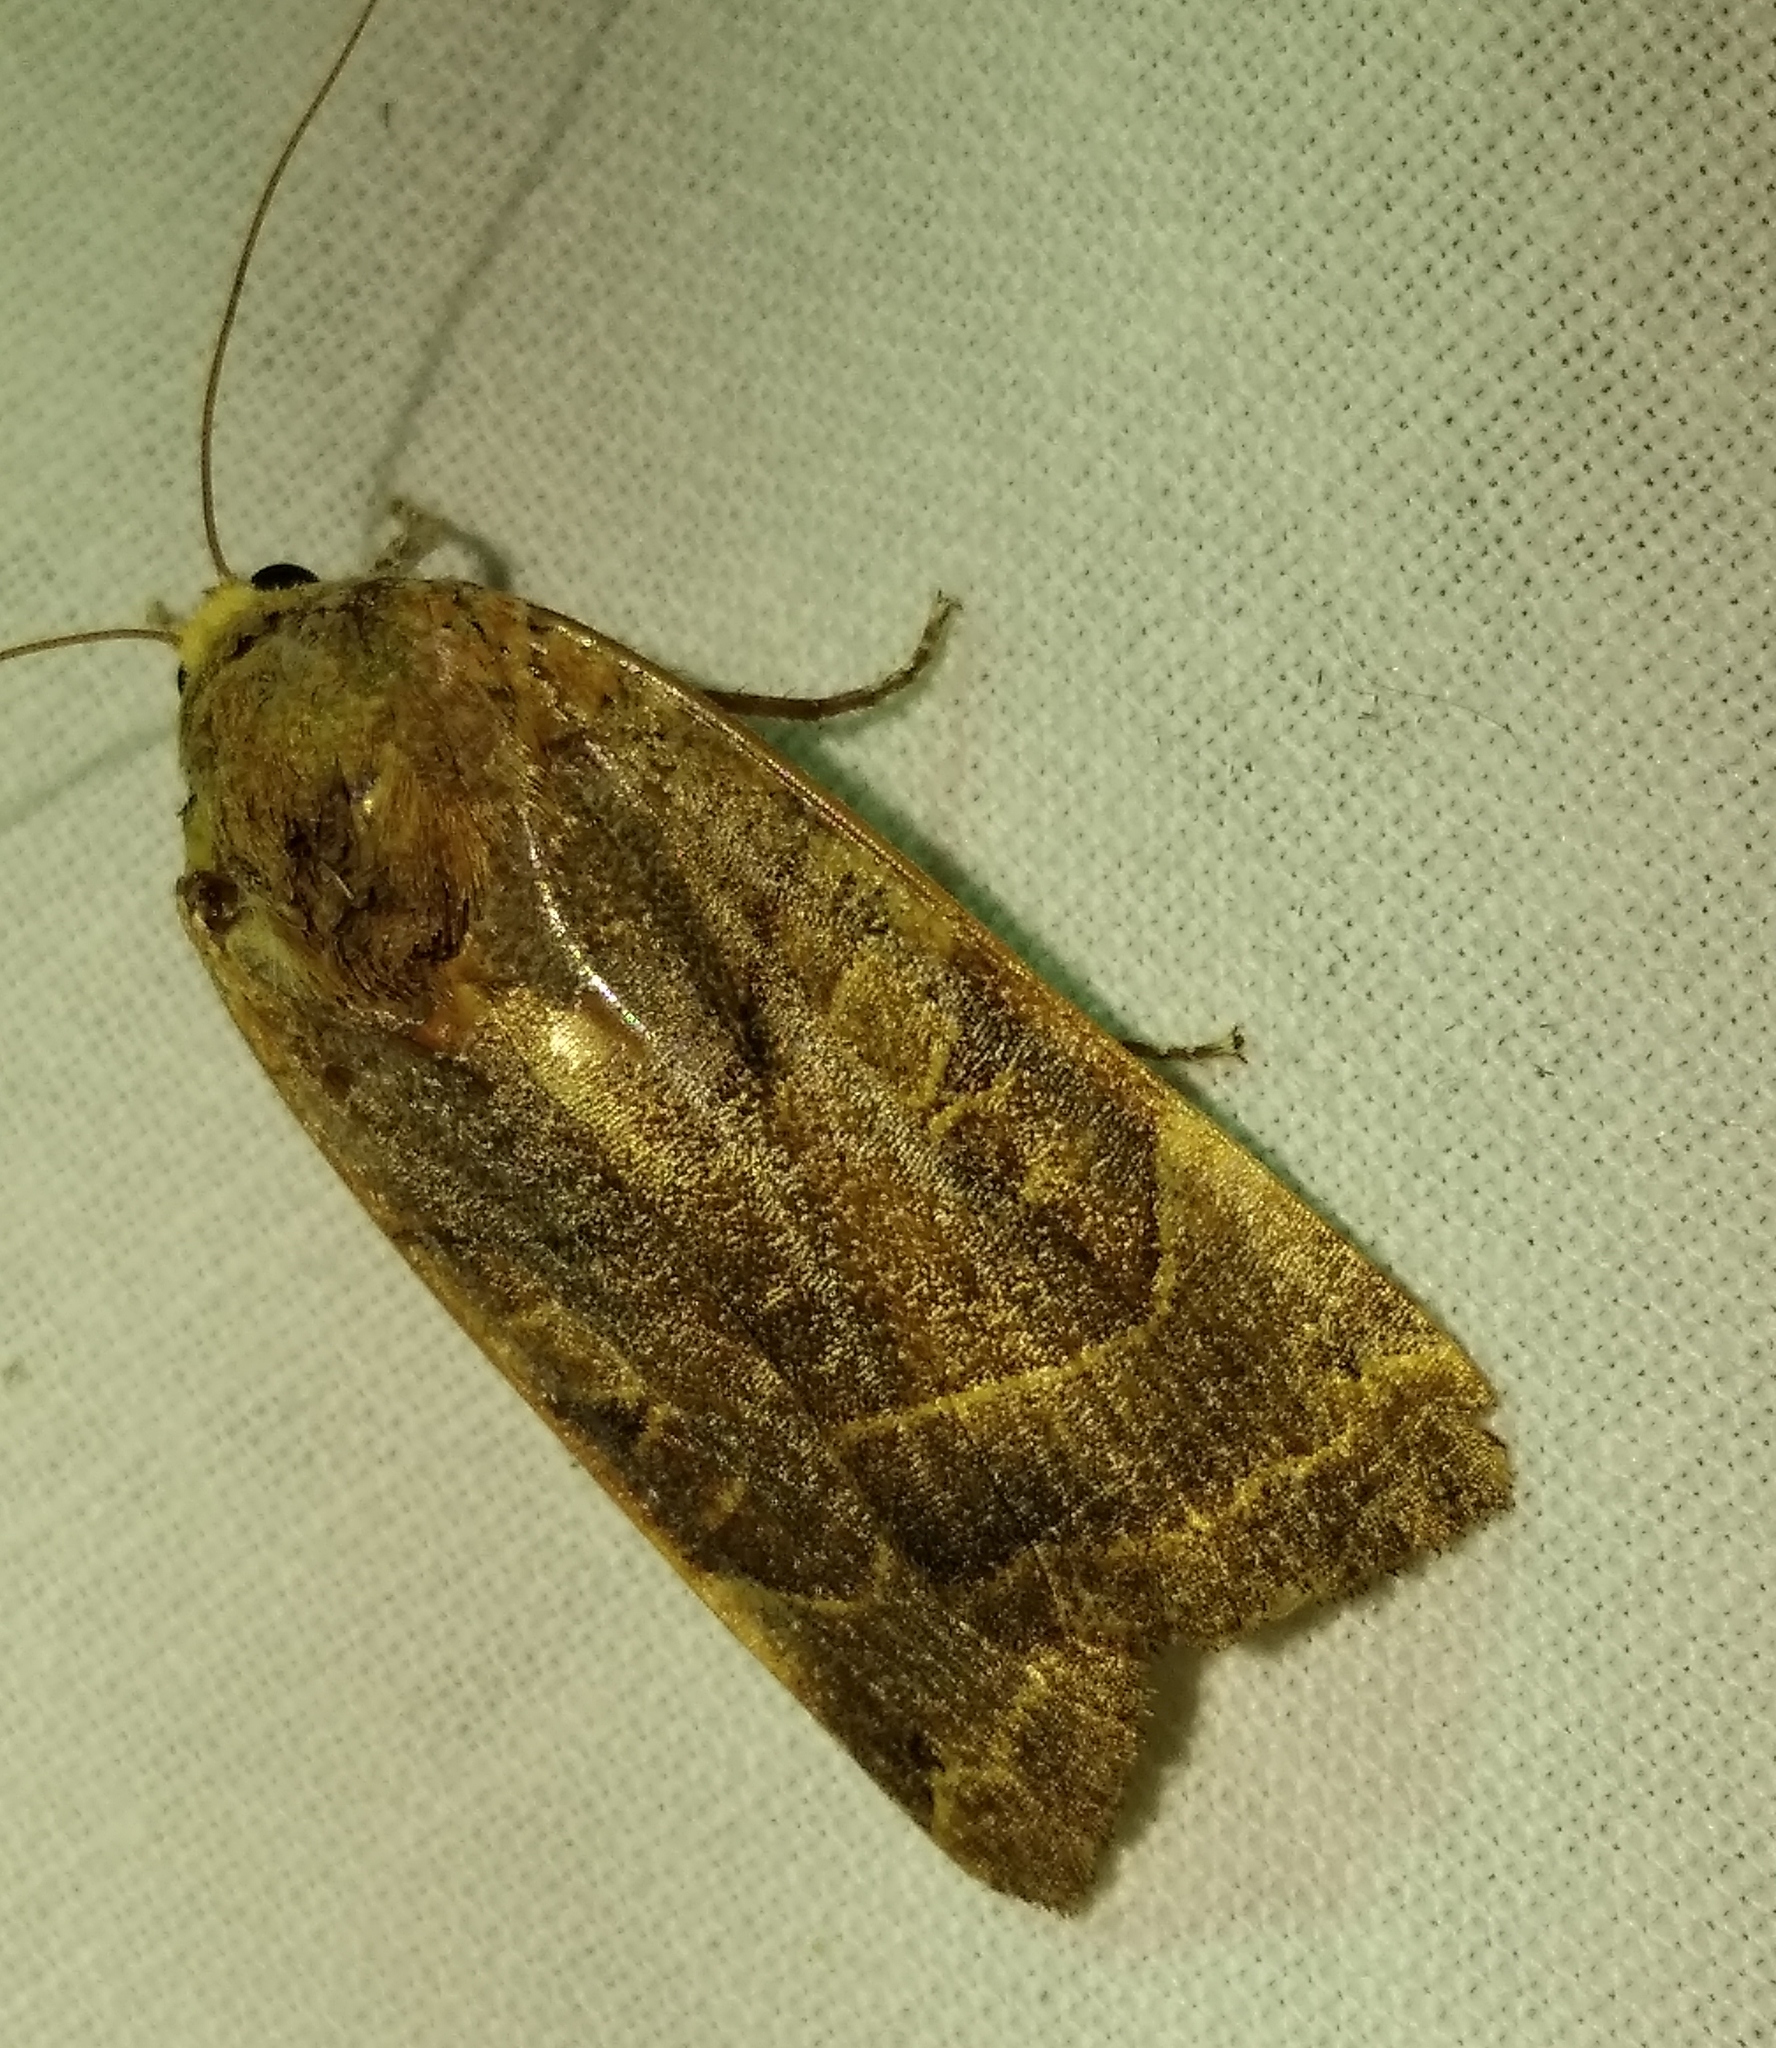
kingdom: Animalia
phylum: Arthropoda
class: Insecta
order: Lepidoptera
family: Noctuidae
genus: Noctua
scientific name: Noctua fimbriata
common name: Broad-bordered yellow underwing
